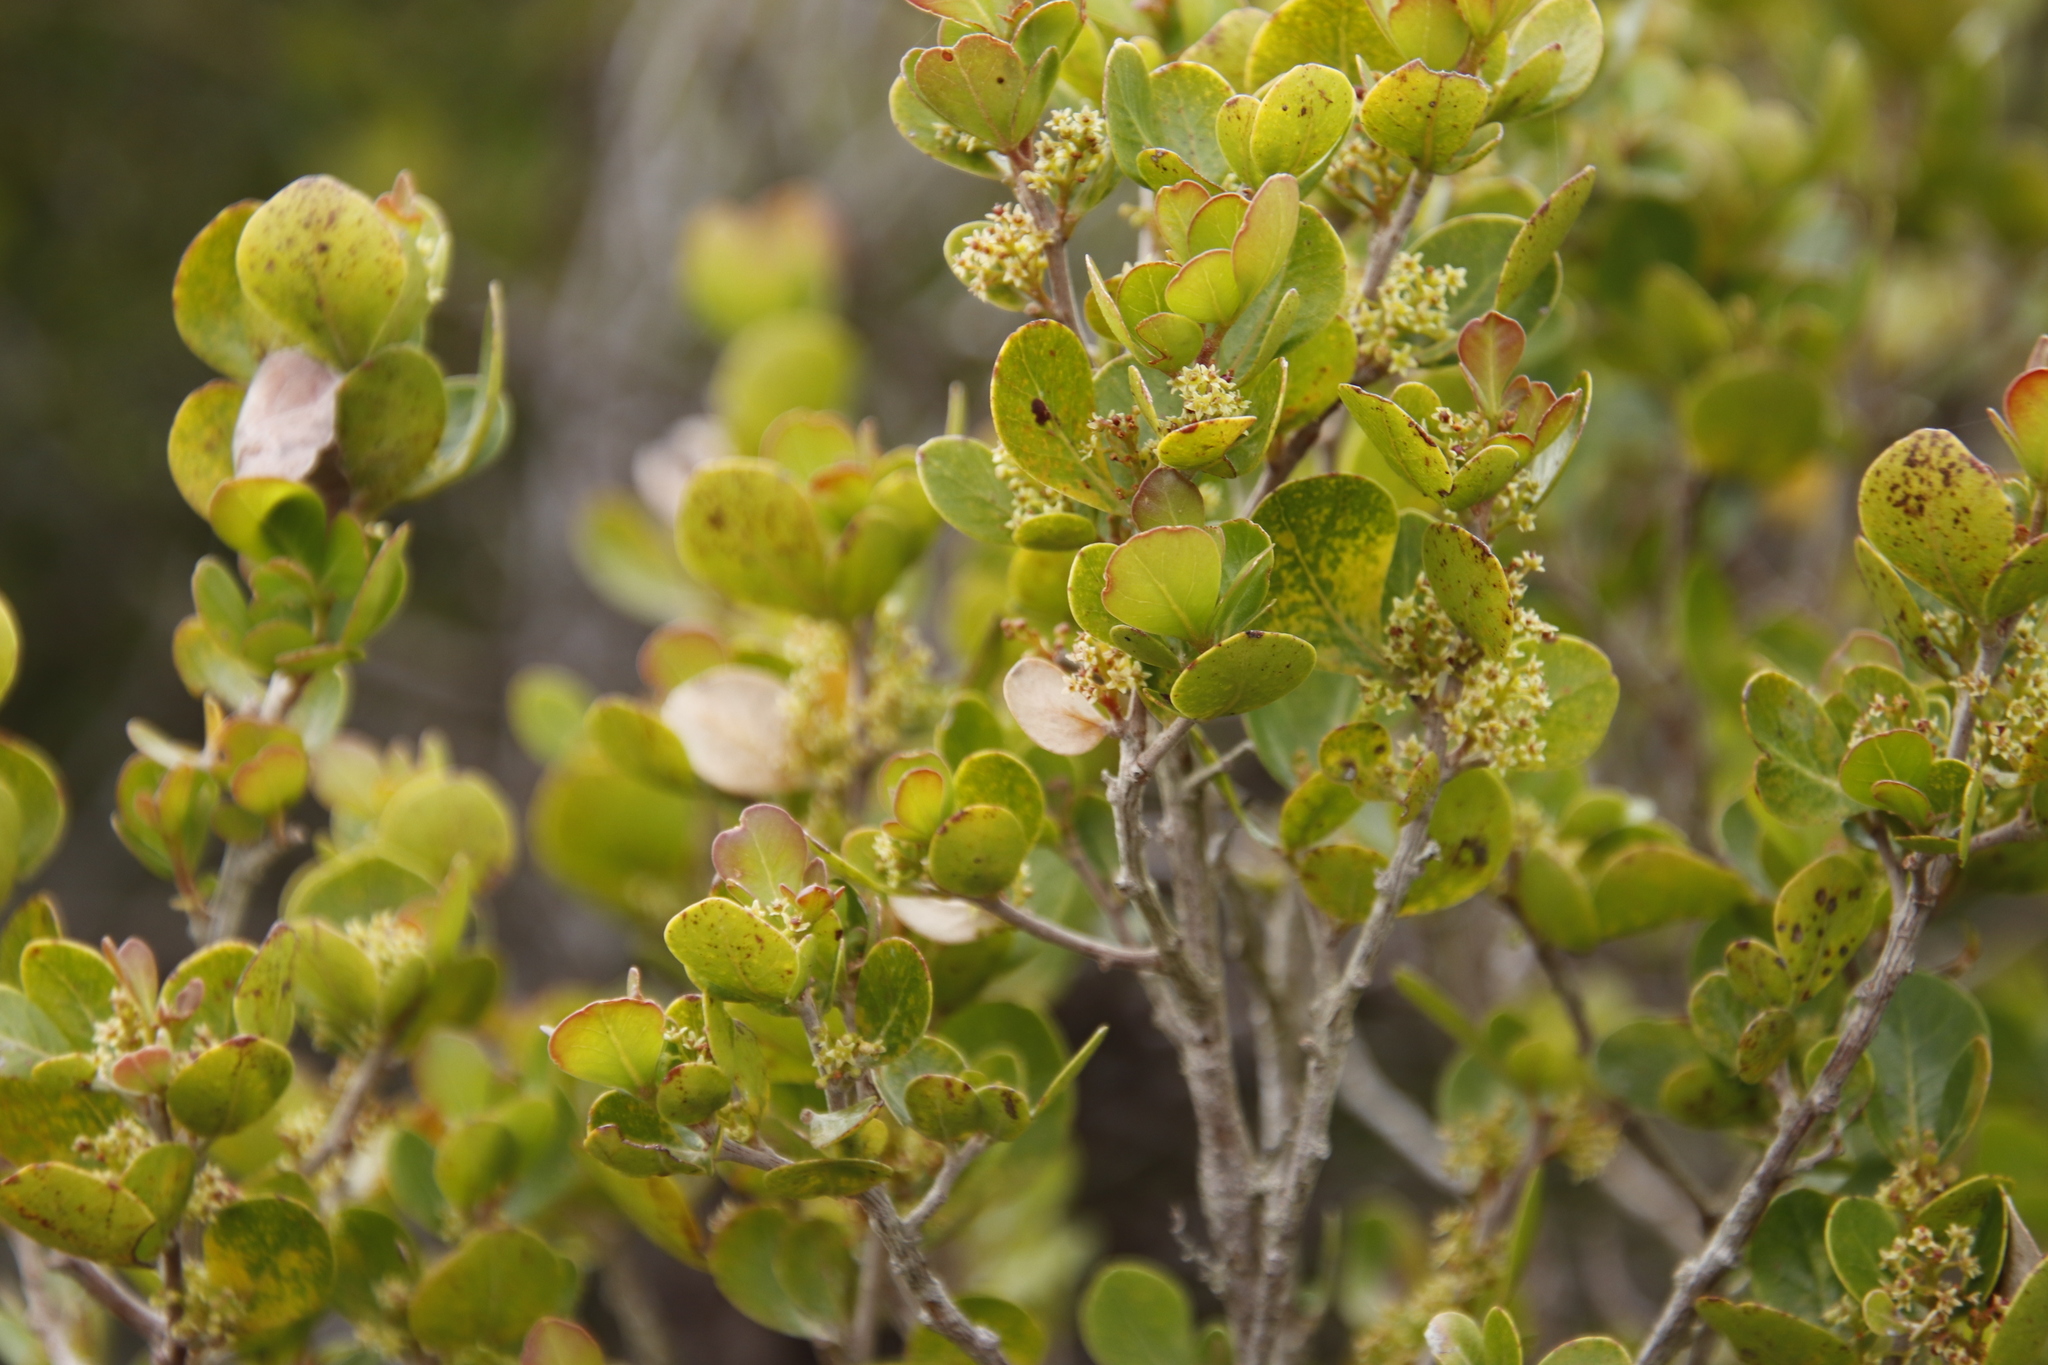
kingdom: Plantae
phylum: Tracheophyta
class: Magnoliopsida
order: Sapindales
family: Anacardiaceae
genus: Searsia
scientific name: Searsia lucida
